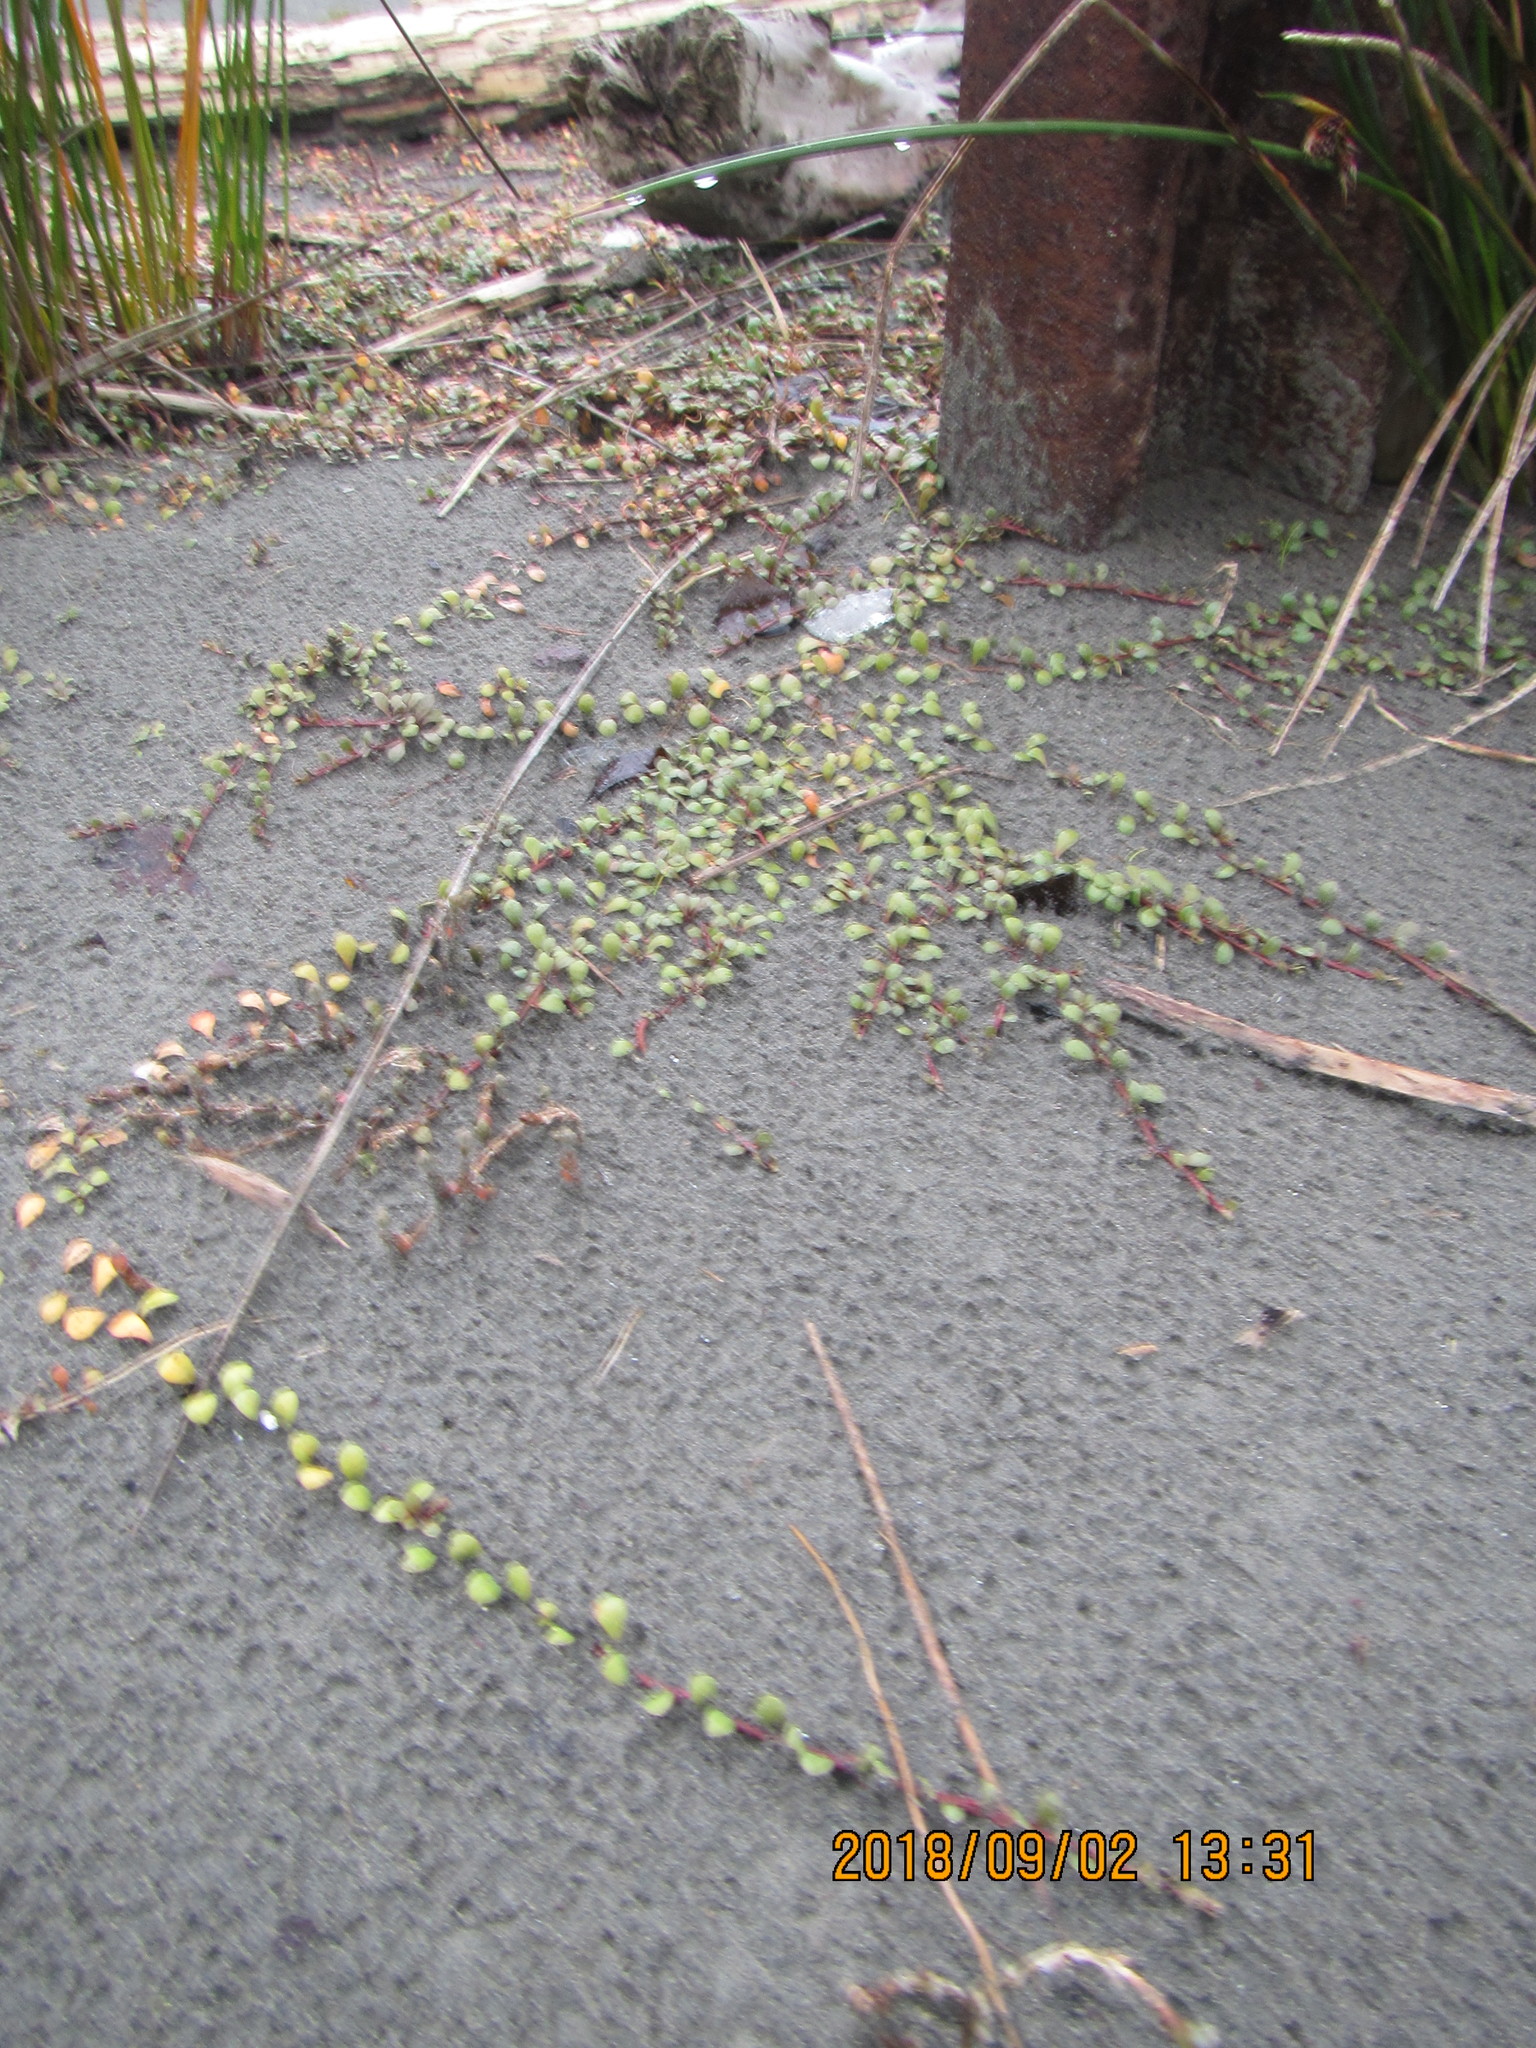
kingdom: Plantae
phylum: Tracheophyta
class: Magnoliopsida
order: Ericales
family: Primulaceae
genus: Samolus
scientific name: Samolus repens
